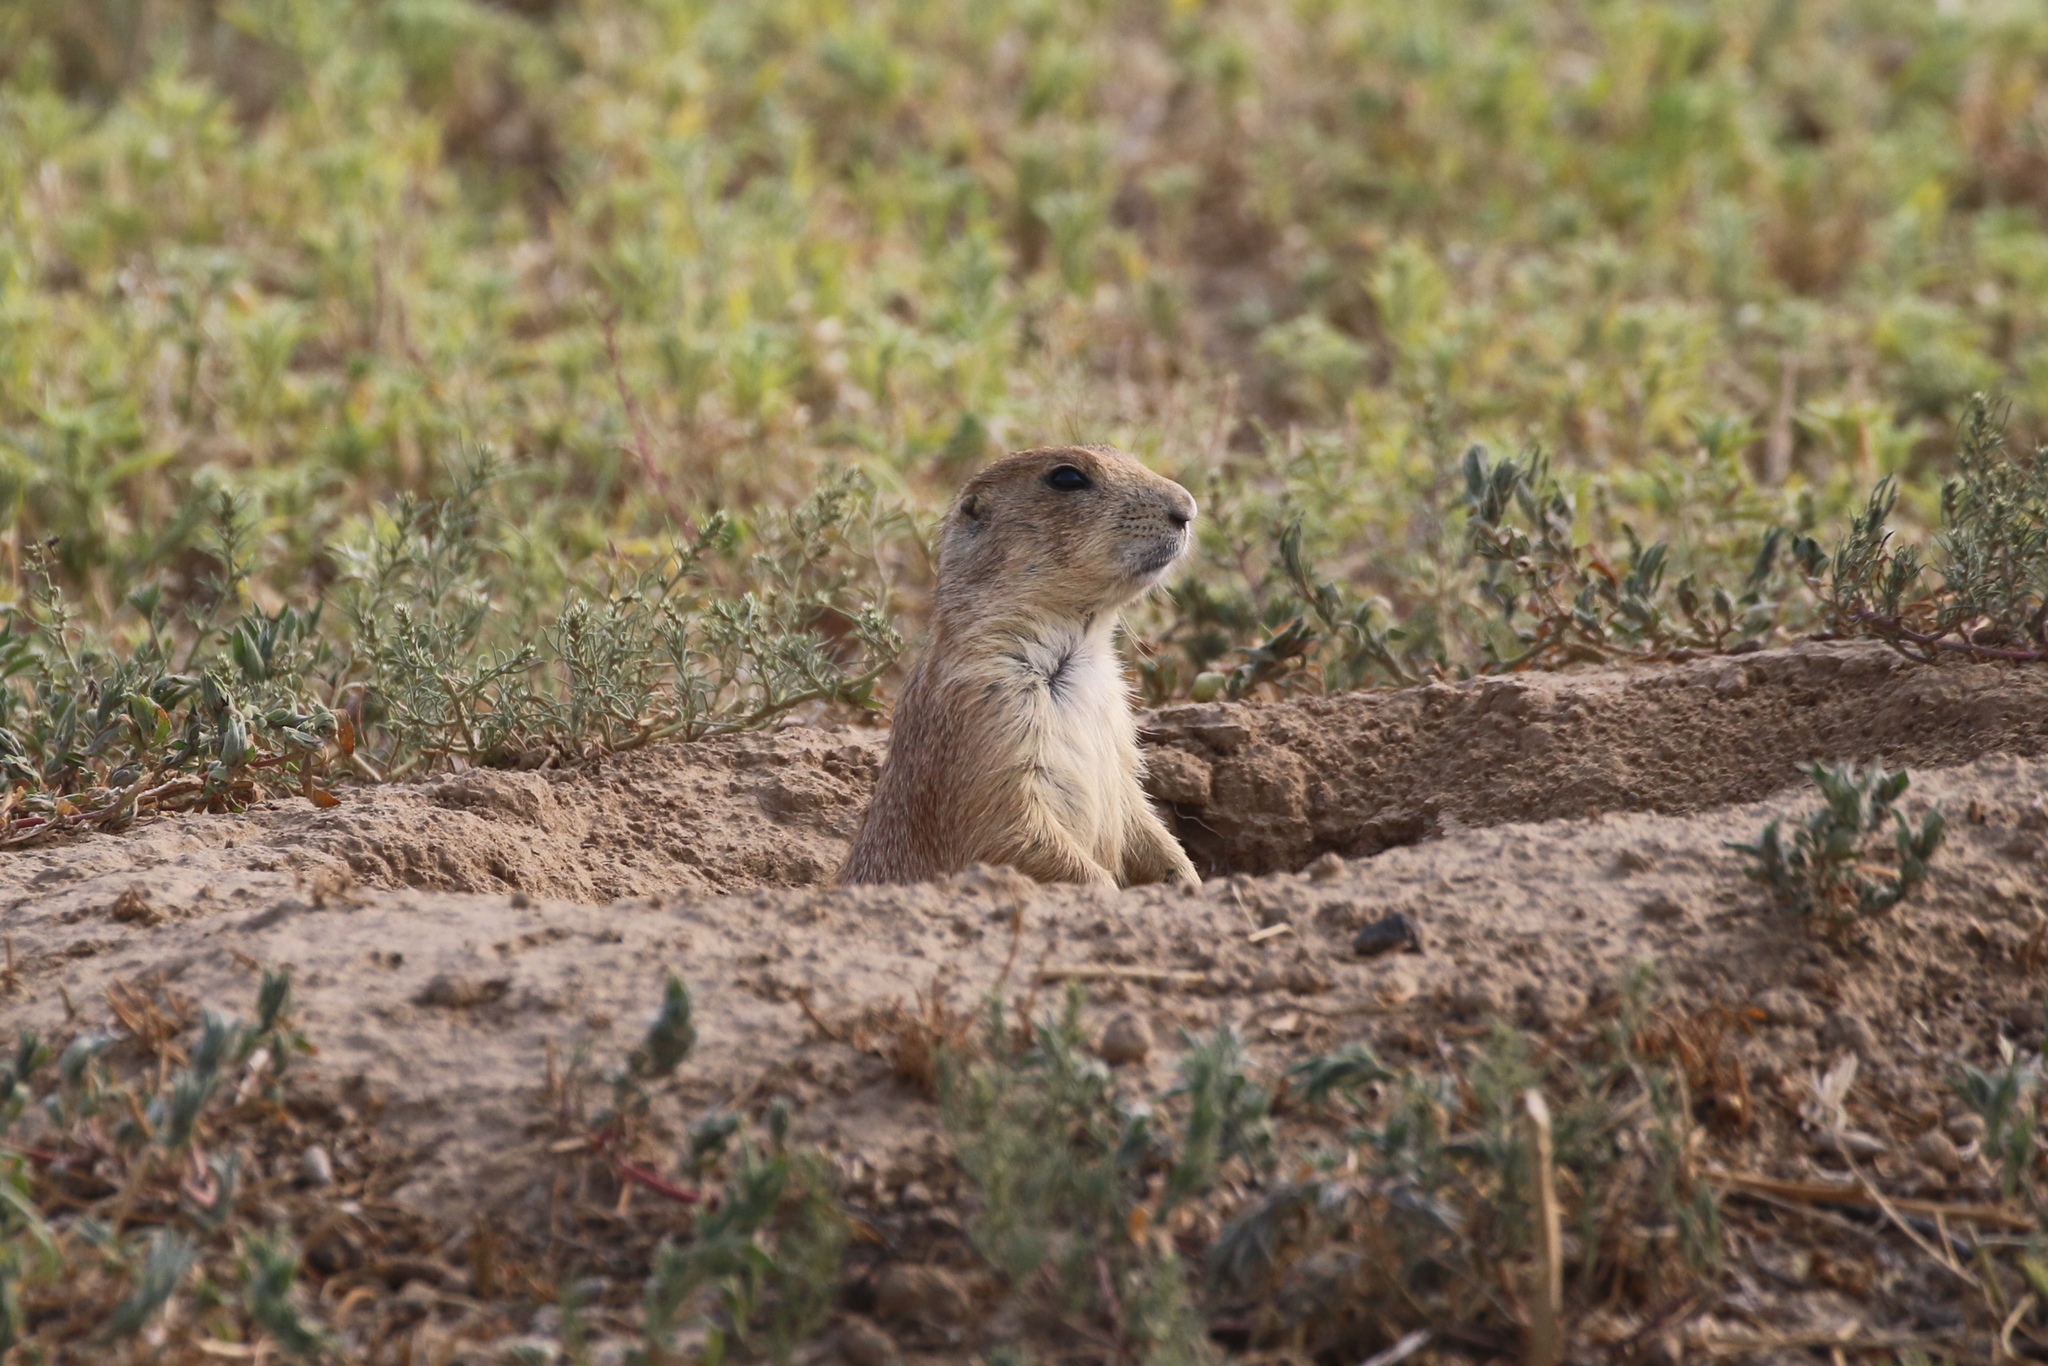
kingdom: Animalia
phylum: Chordata
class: Mammalia
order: Rodentia
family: Sciuridae
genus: Cynomys
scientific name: Cynomys ludovicianus
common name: Black-tailed prairie dog
